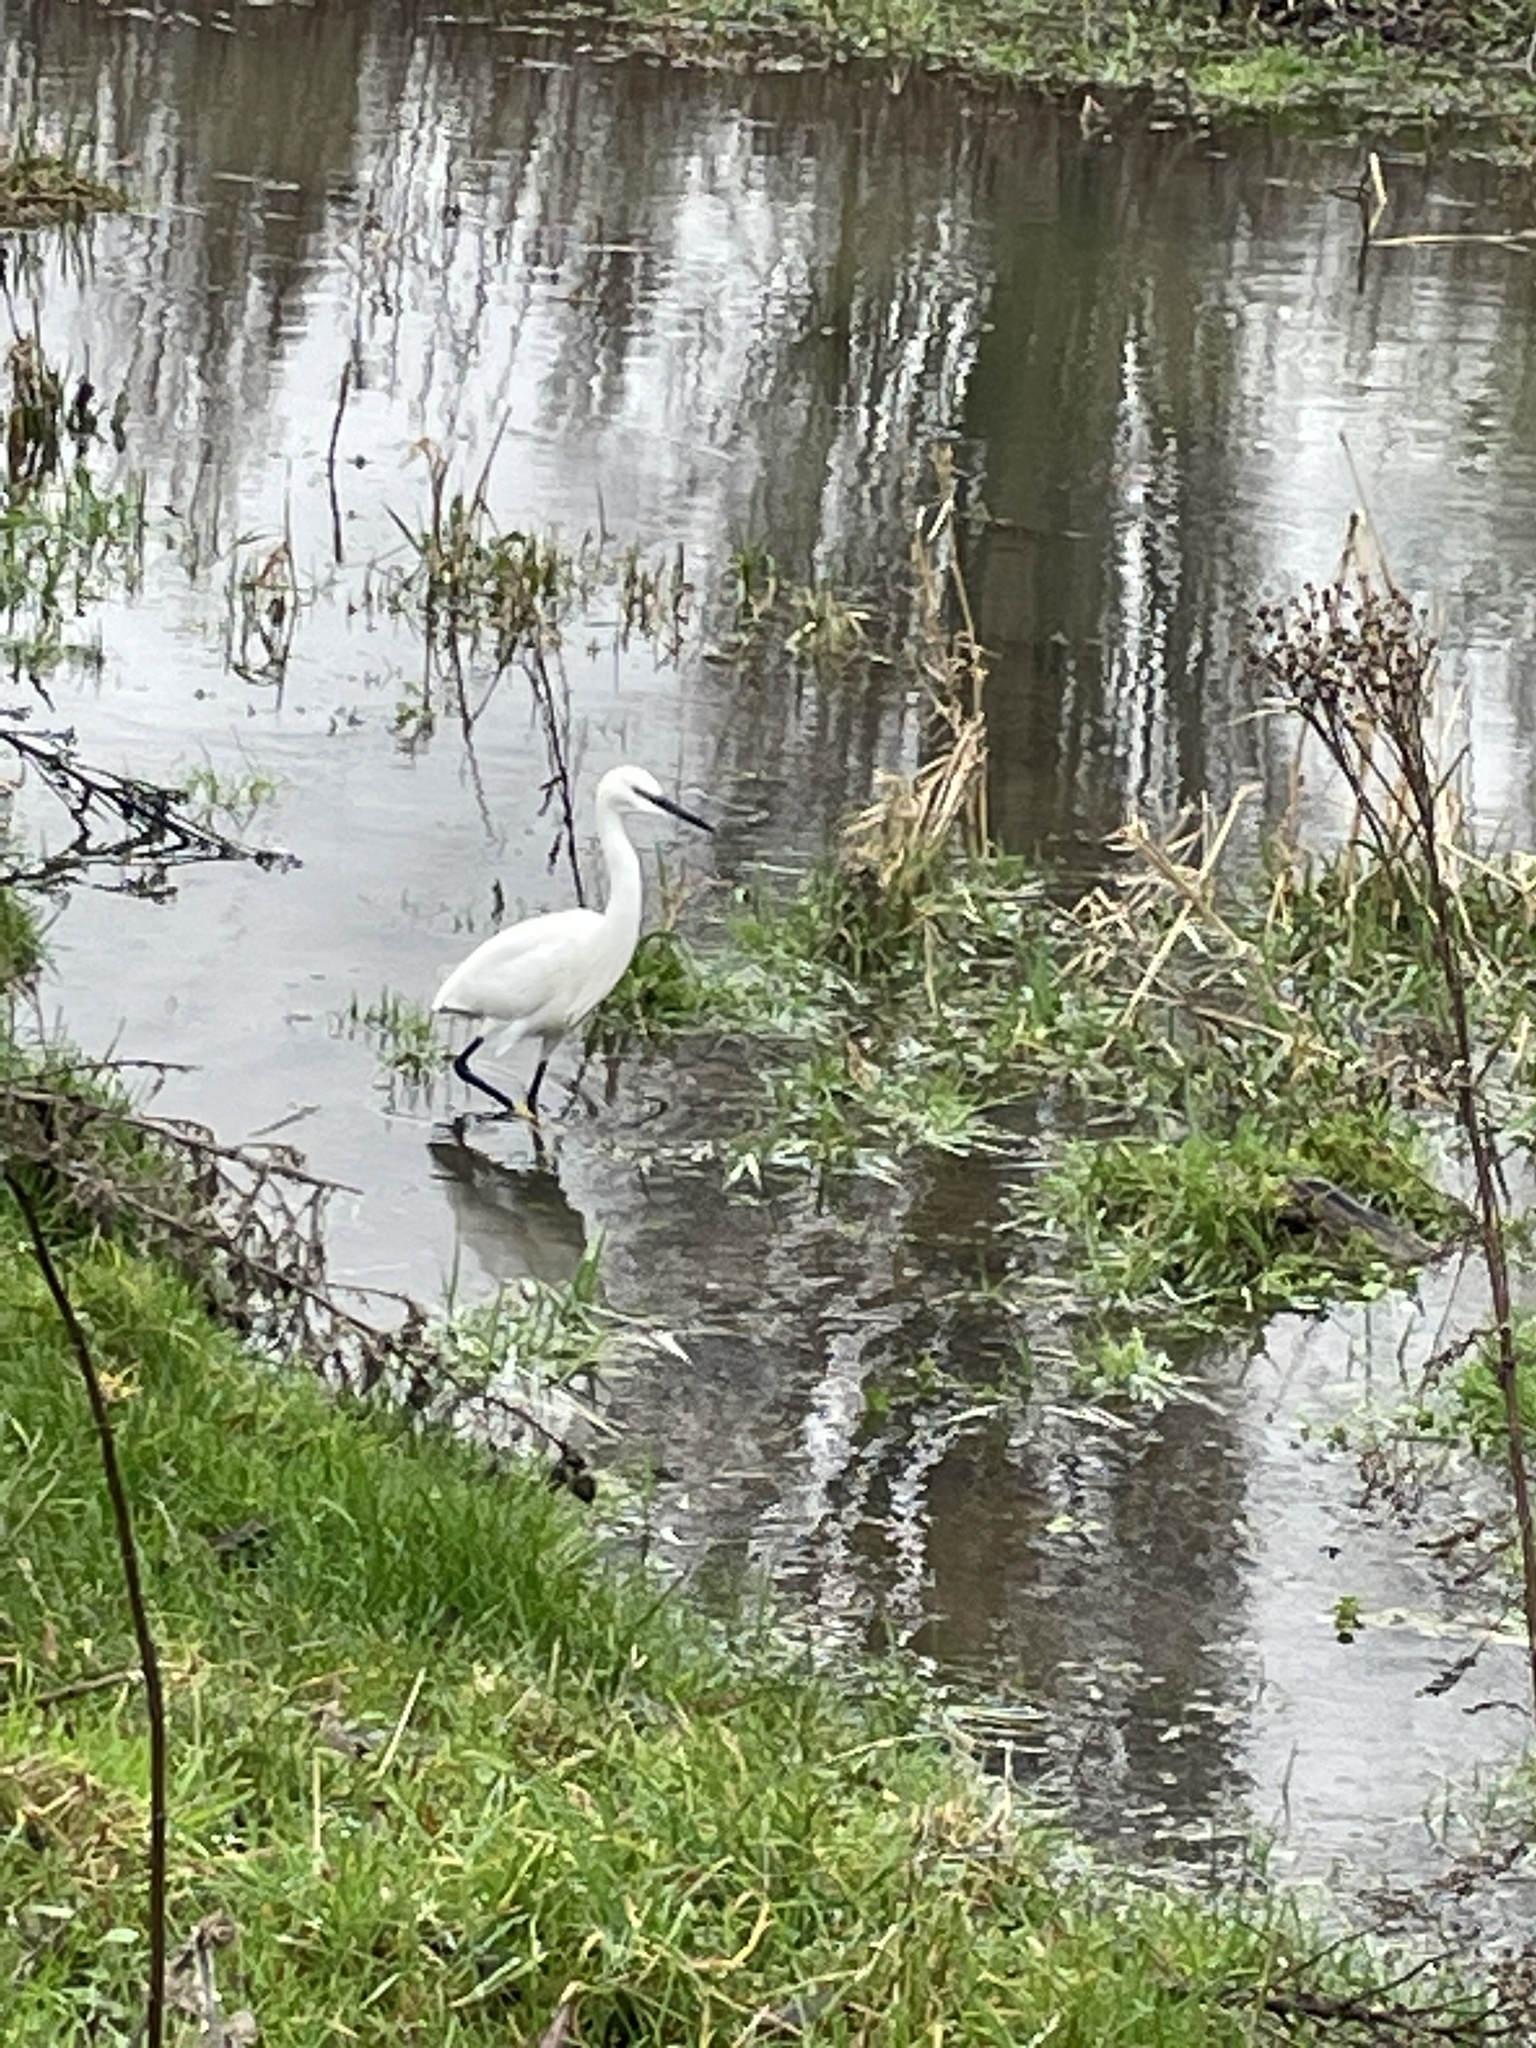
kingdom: Animalia
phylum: Chordata
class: Aves
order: Pelecaniformes
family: Ardeidae
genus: Egretta
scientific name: Egretta garzetta
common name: Little egret
